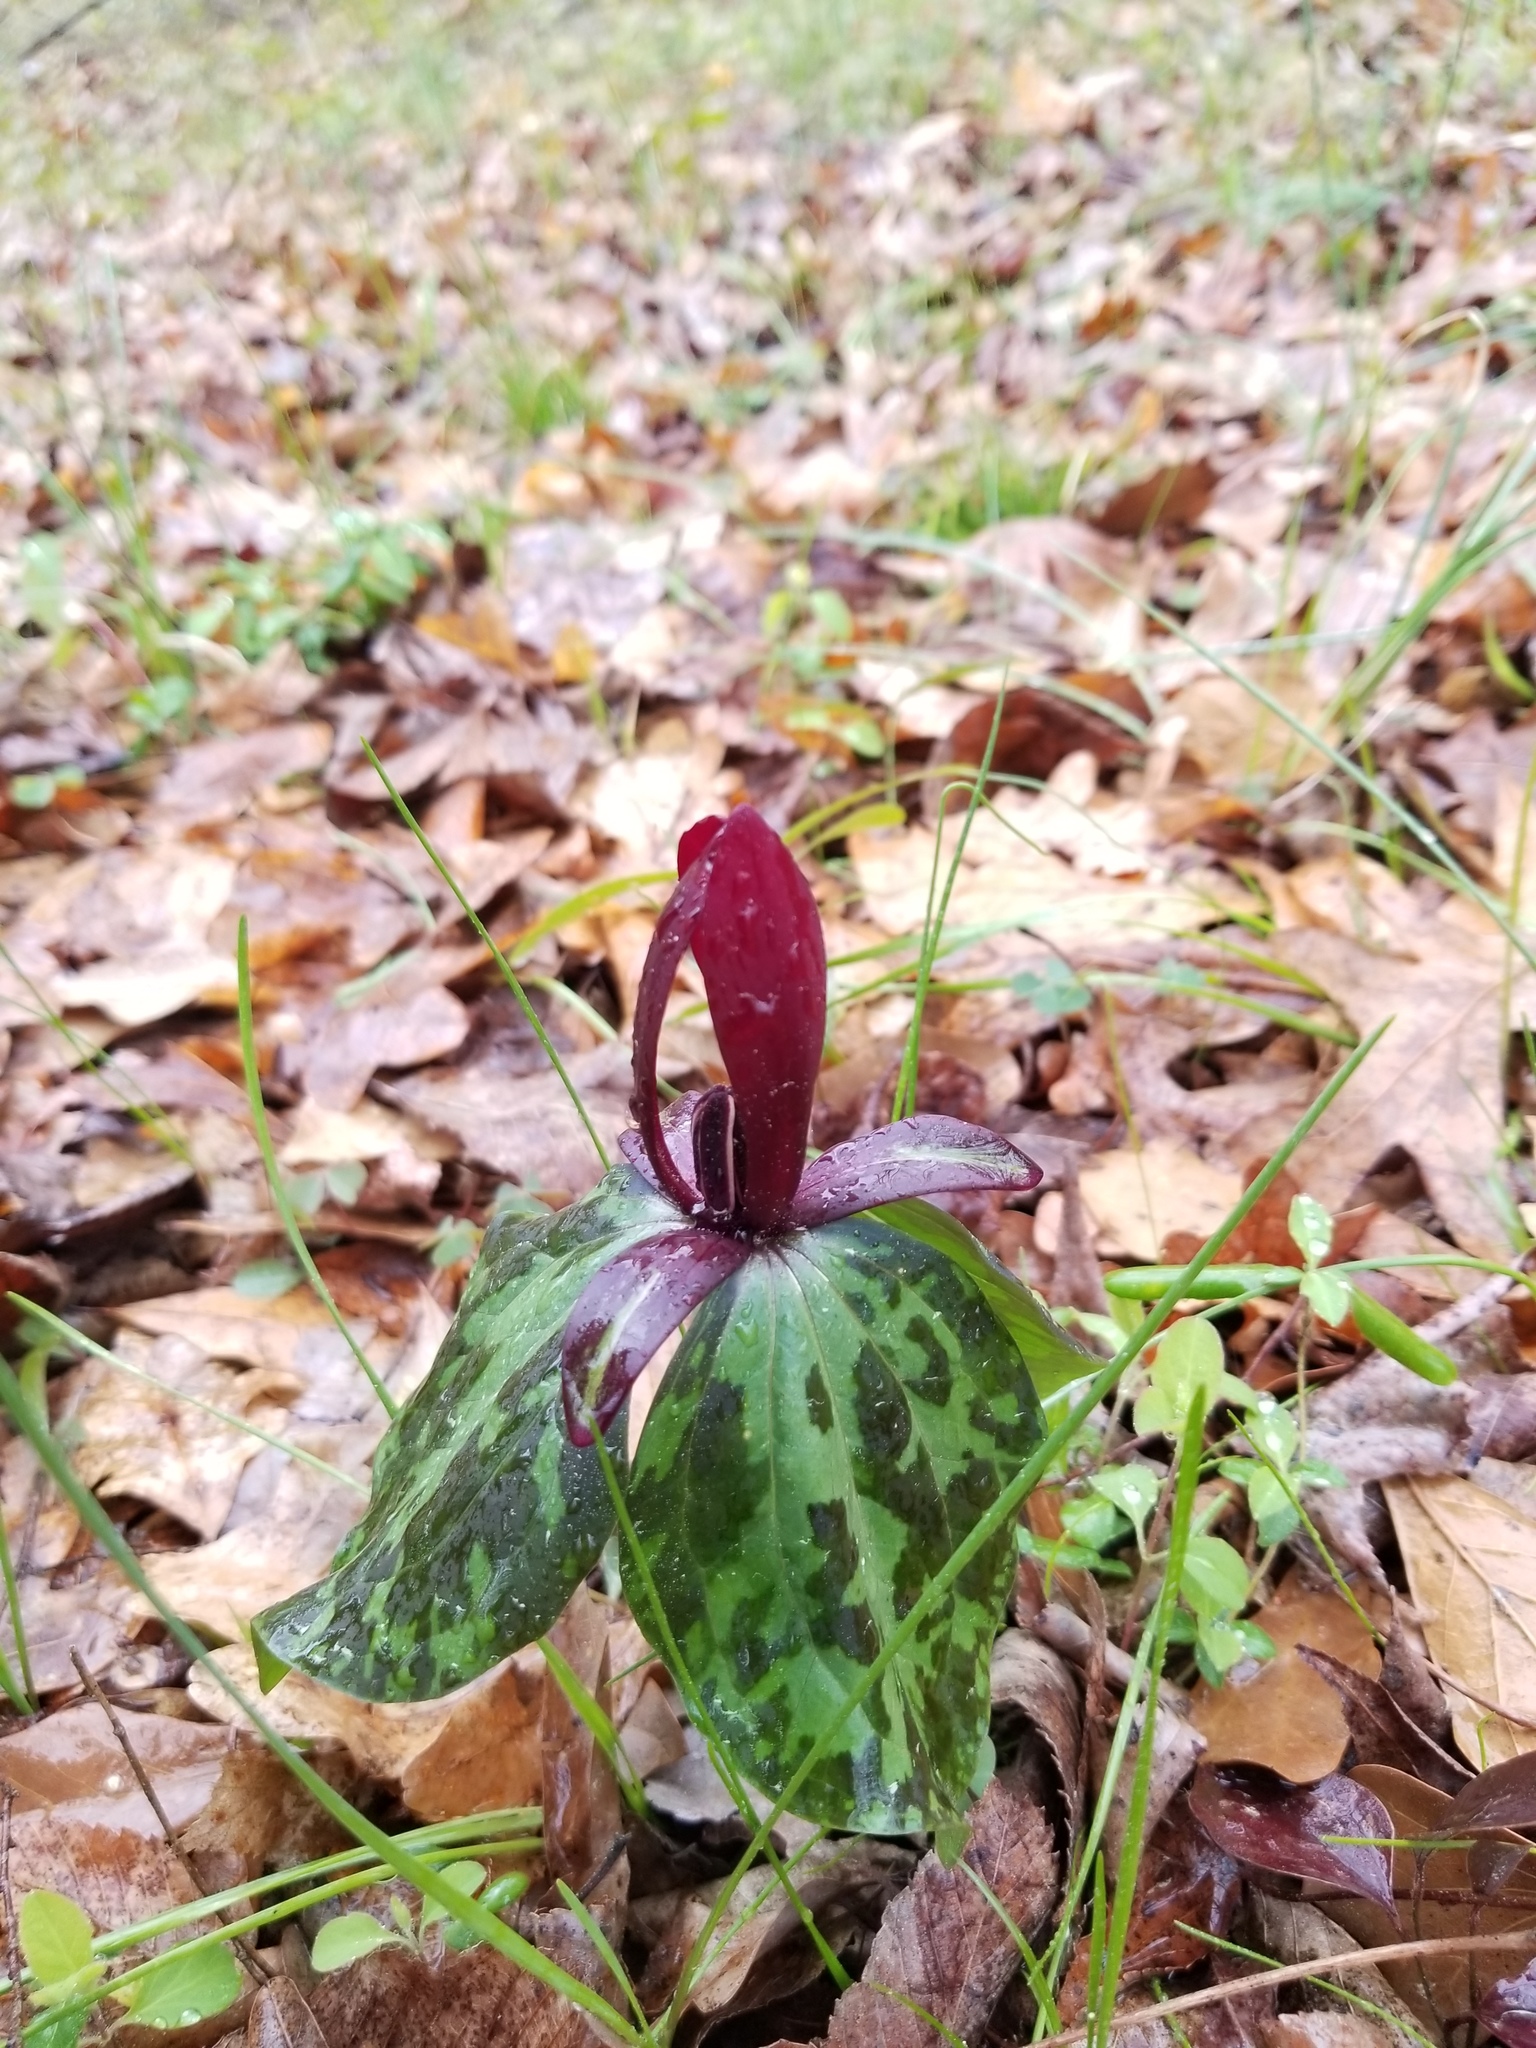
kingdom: Plantae
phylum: Tracheophyta
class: Liliopsida
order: Liliales
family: Melanthiaceae
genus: Trillium
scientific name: Trillium maculatum
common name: Mottled trillium
